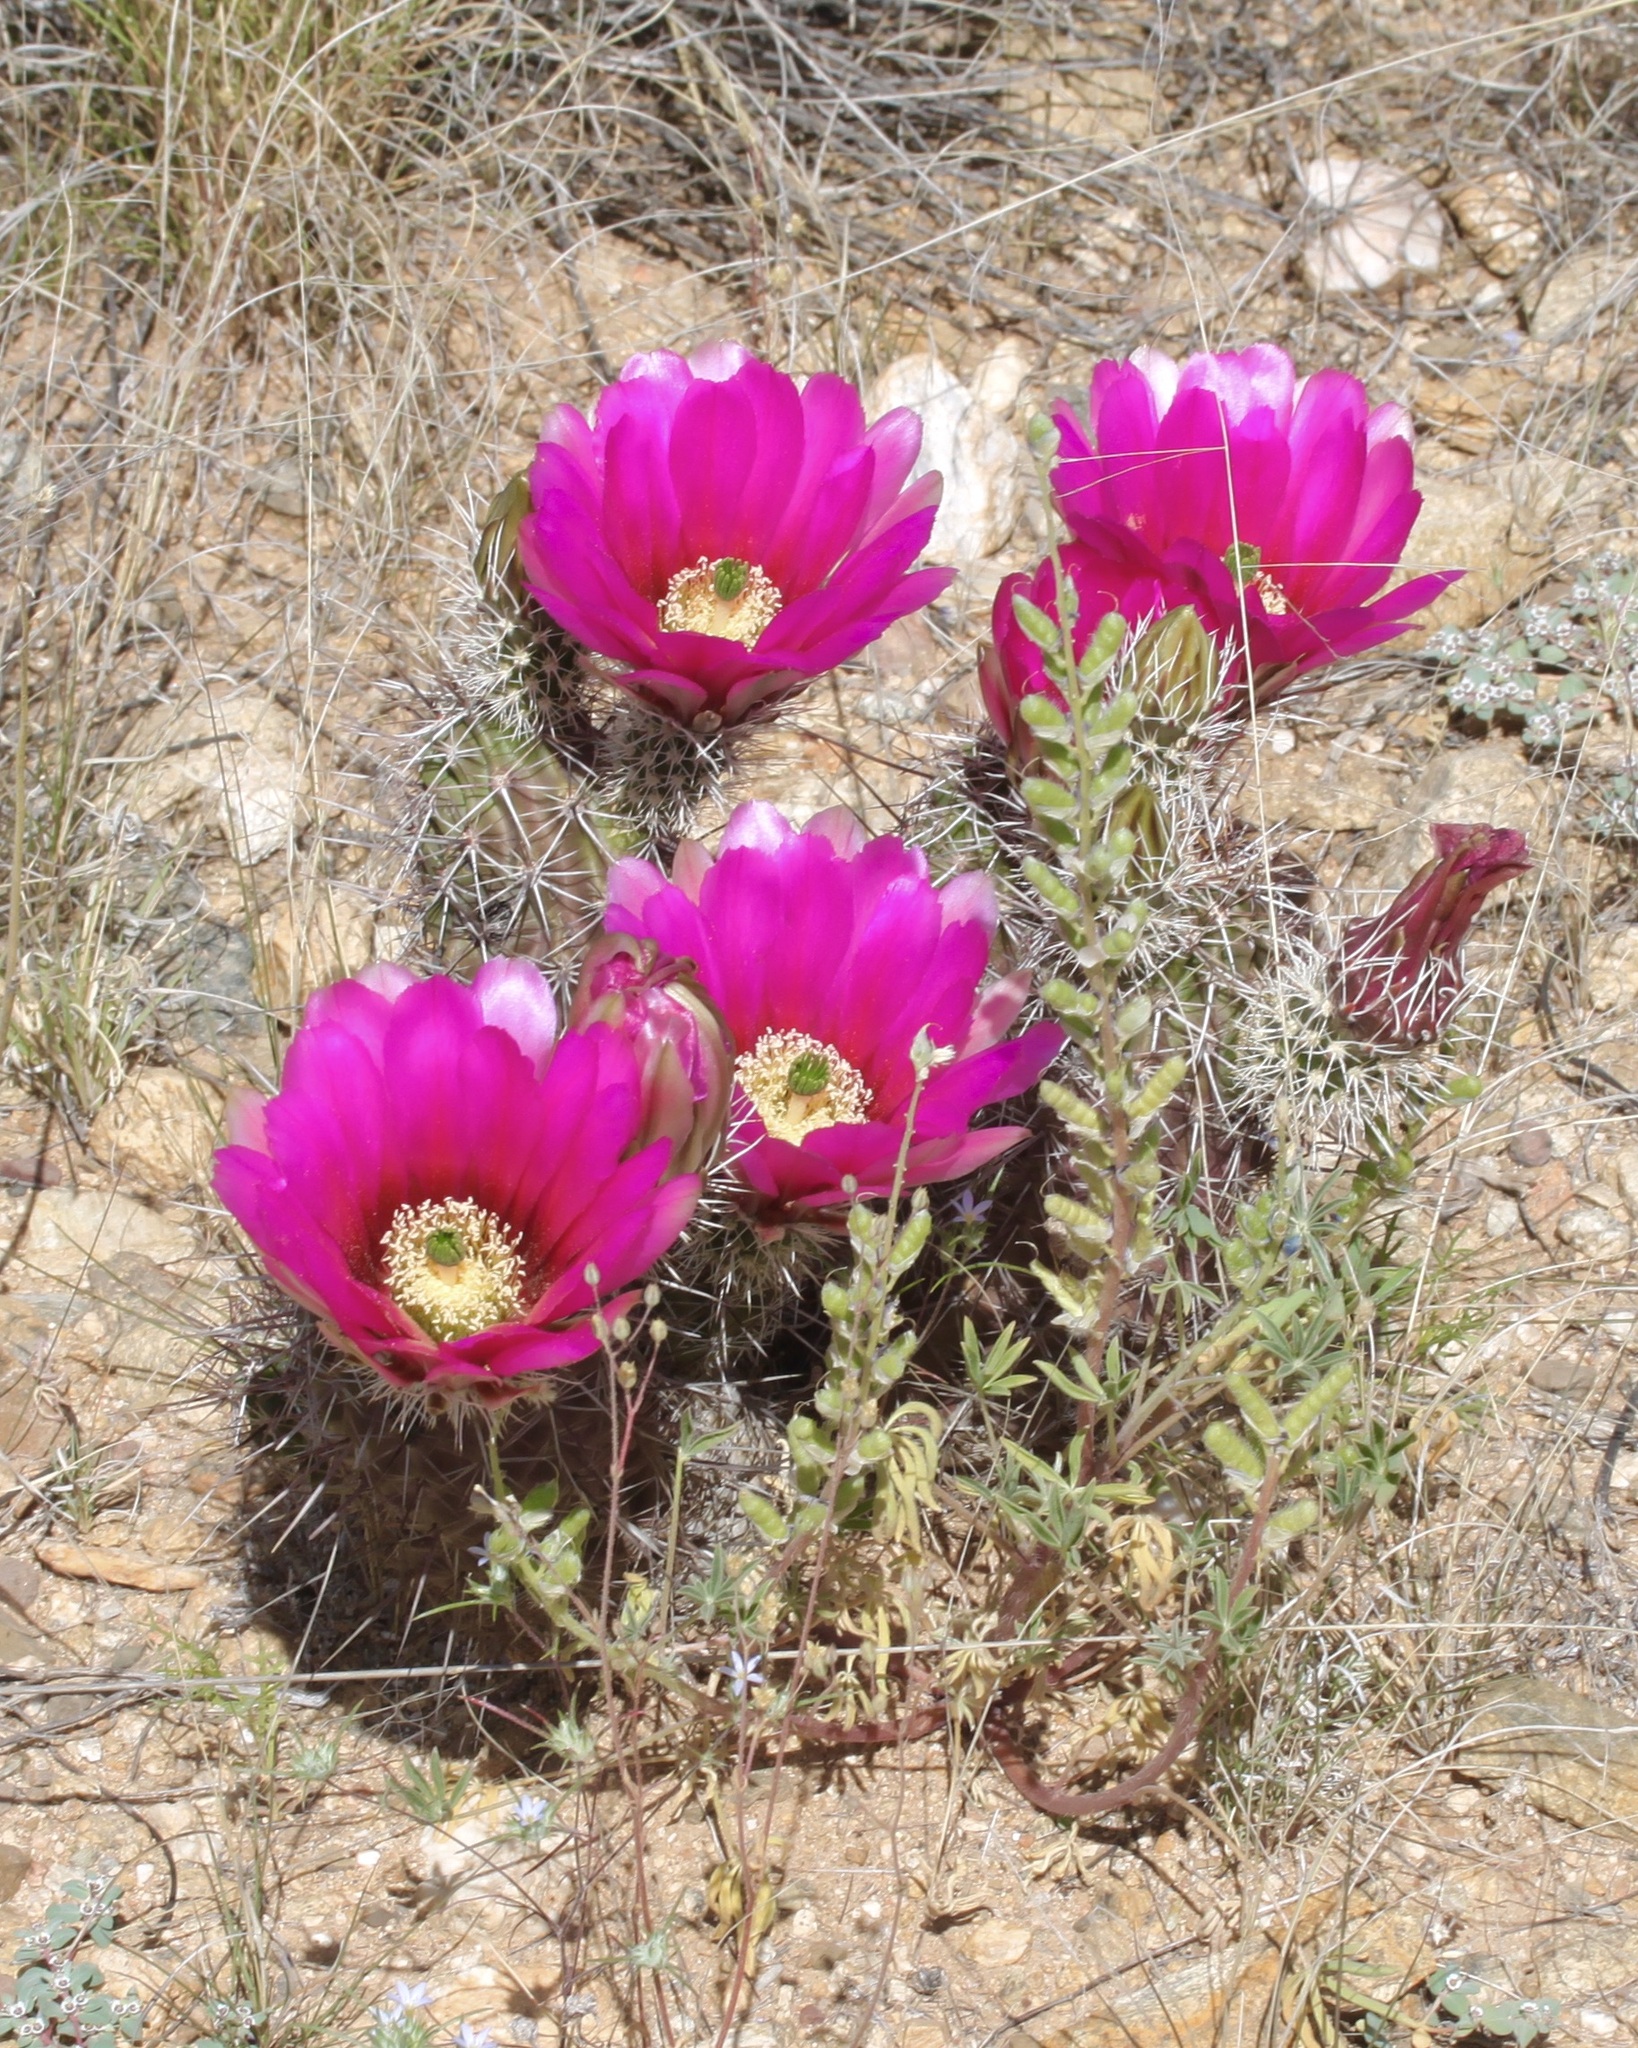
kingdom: Plantae
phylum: Tracheophyta
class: Magnoliopsida
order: Caryophyllales
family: Cactaceae
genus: Echinocereus
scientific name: Echinocereus fasciculatus
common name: Bundle hedgehog
